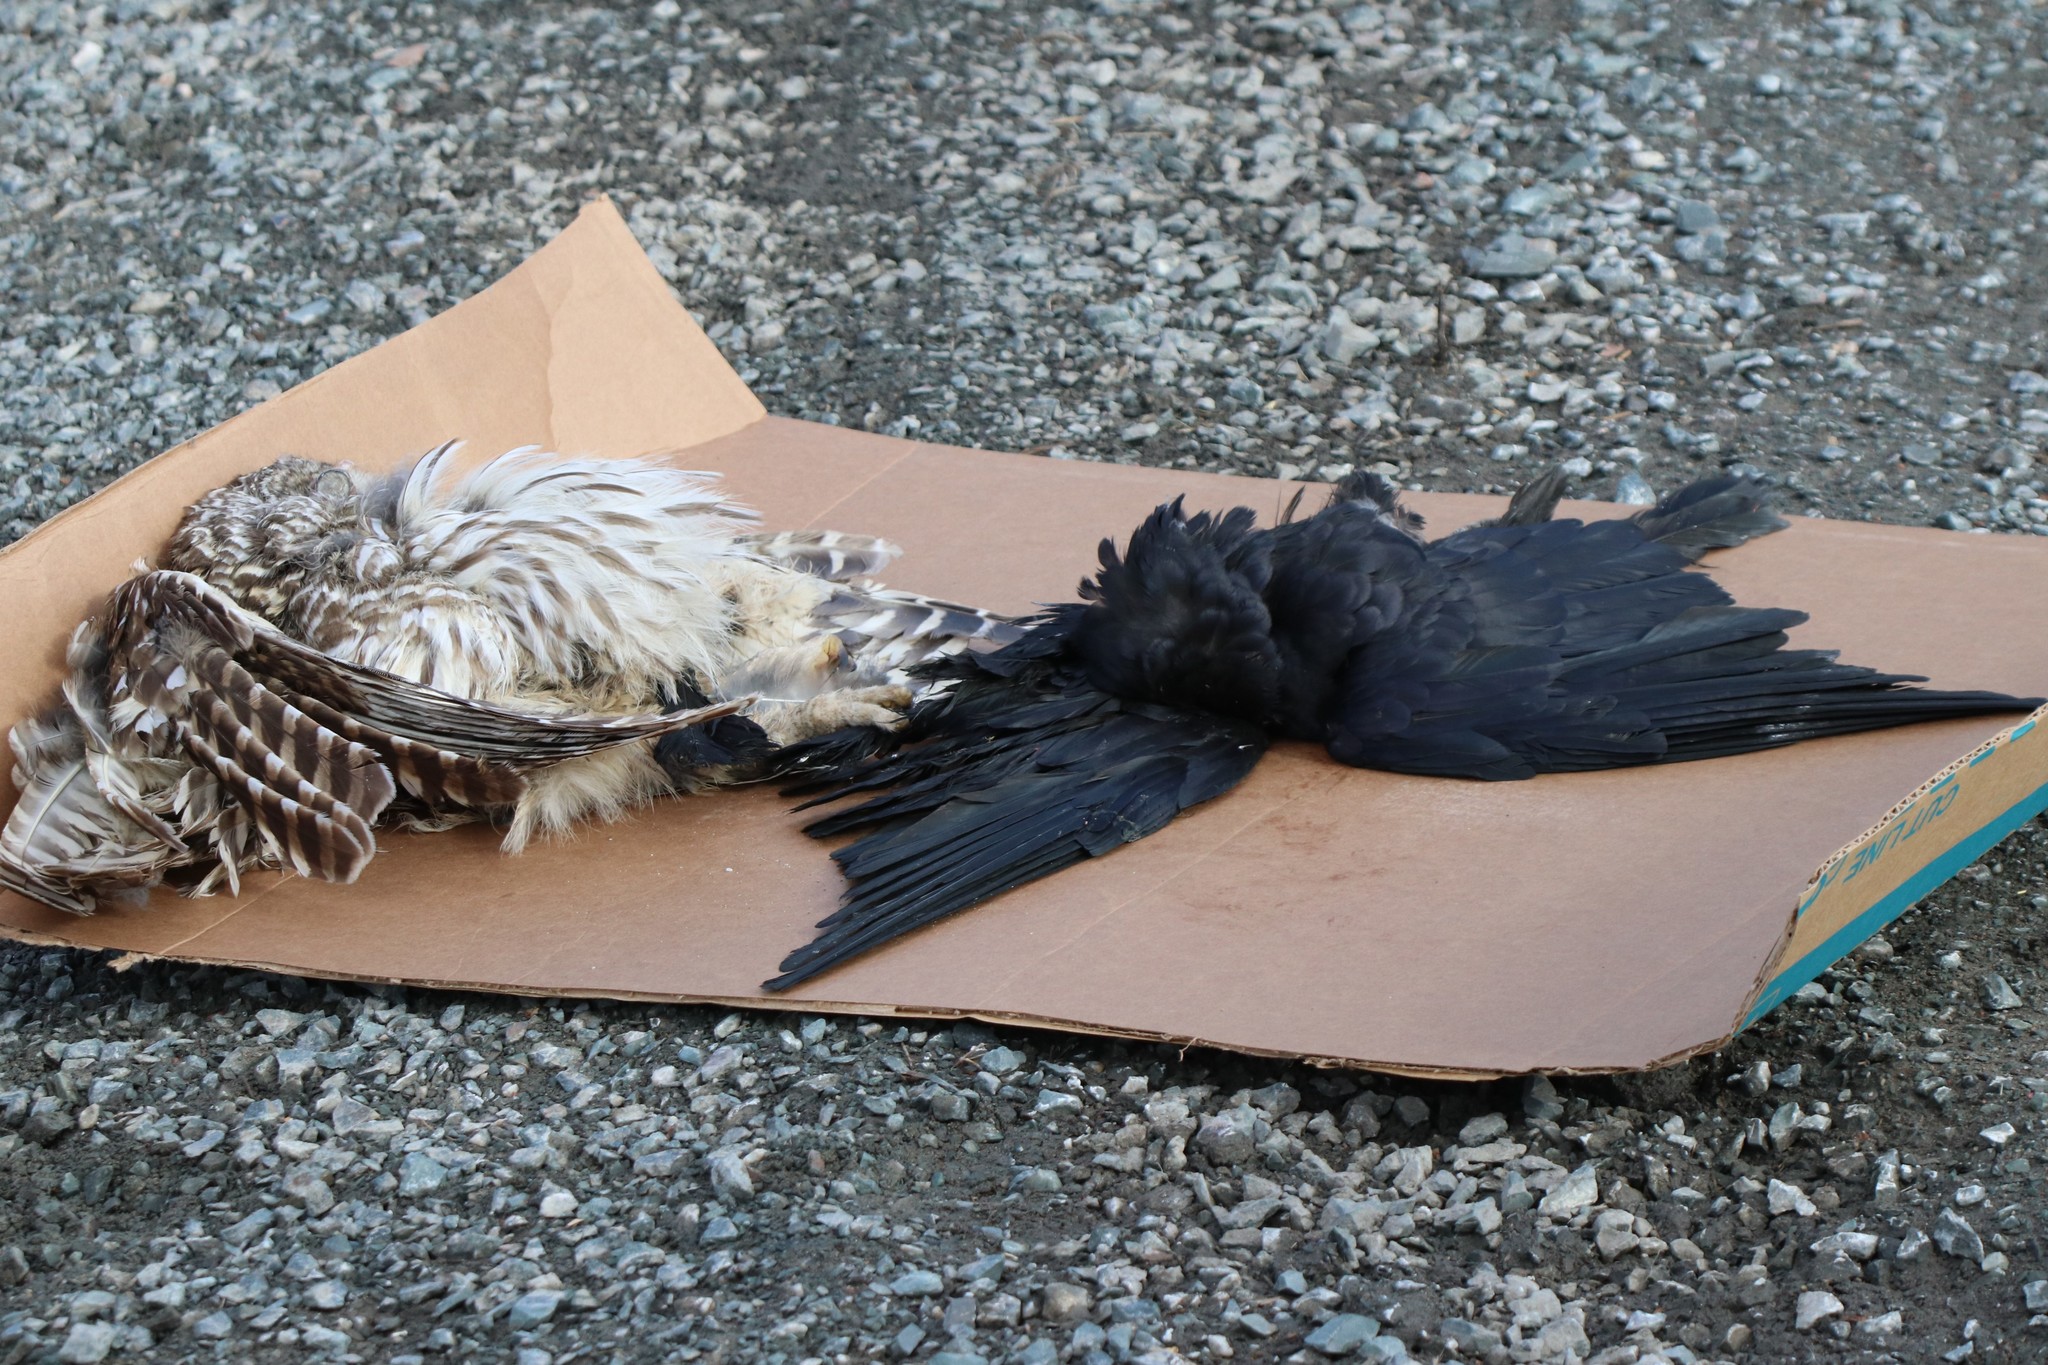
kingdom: Animalia
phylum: Chordata
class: Aves
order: Passeriformes
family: Corvidae
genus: Corvus
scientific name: Corvus brachyrhynchos
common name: American crow
